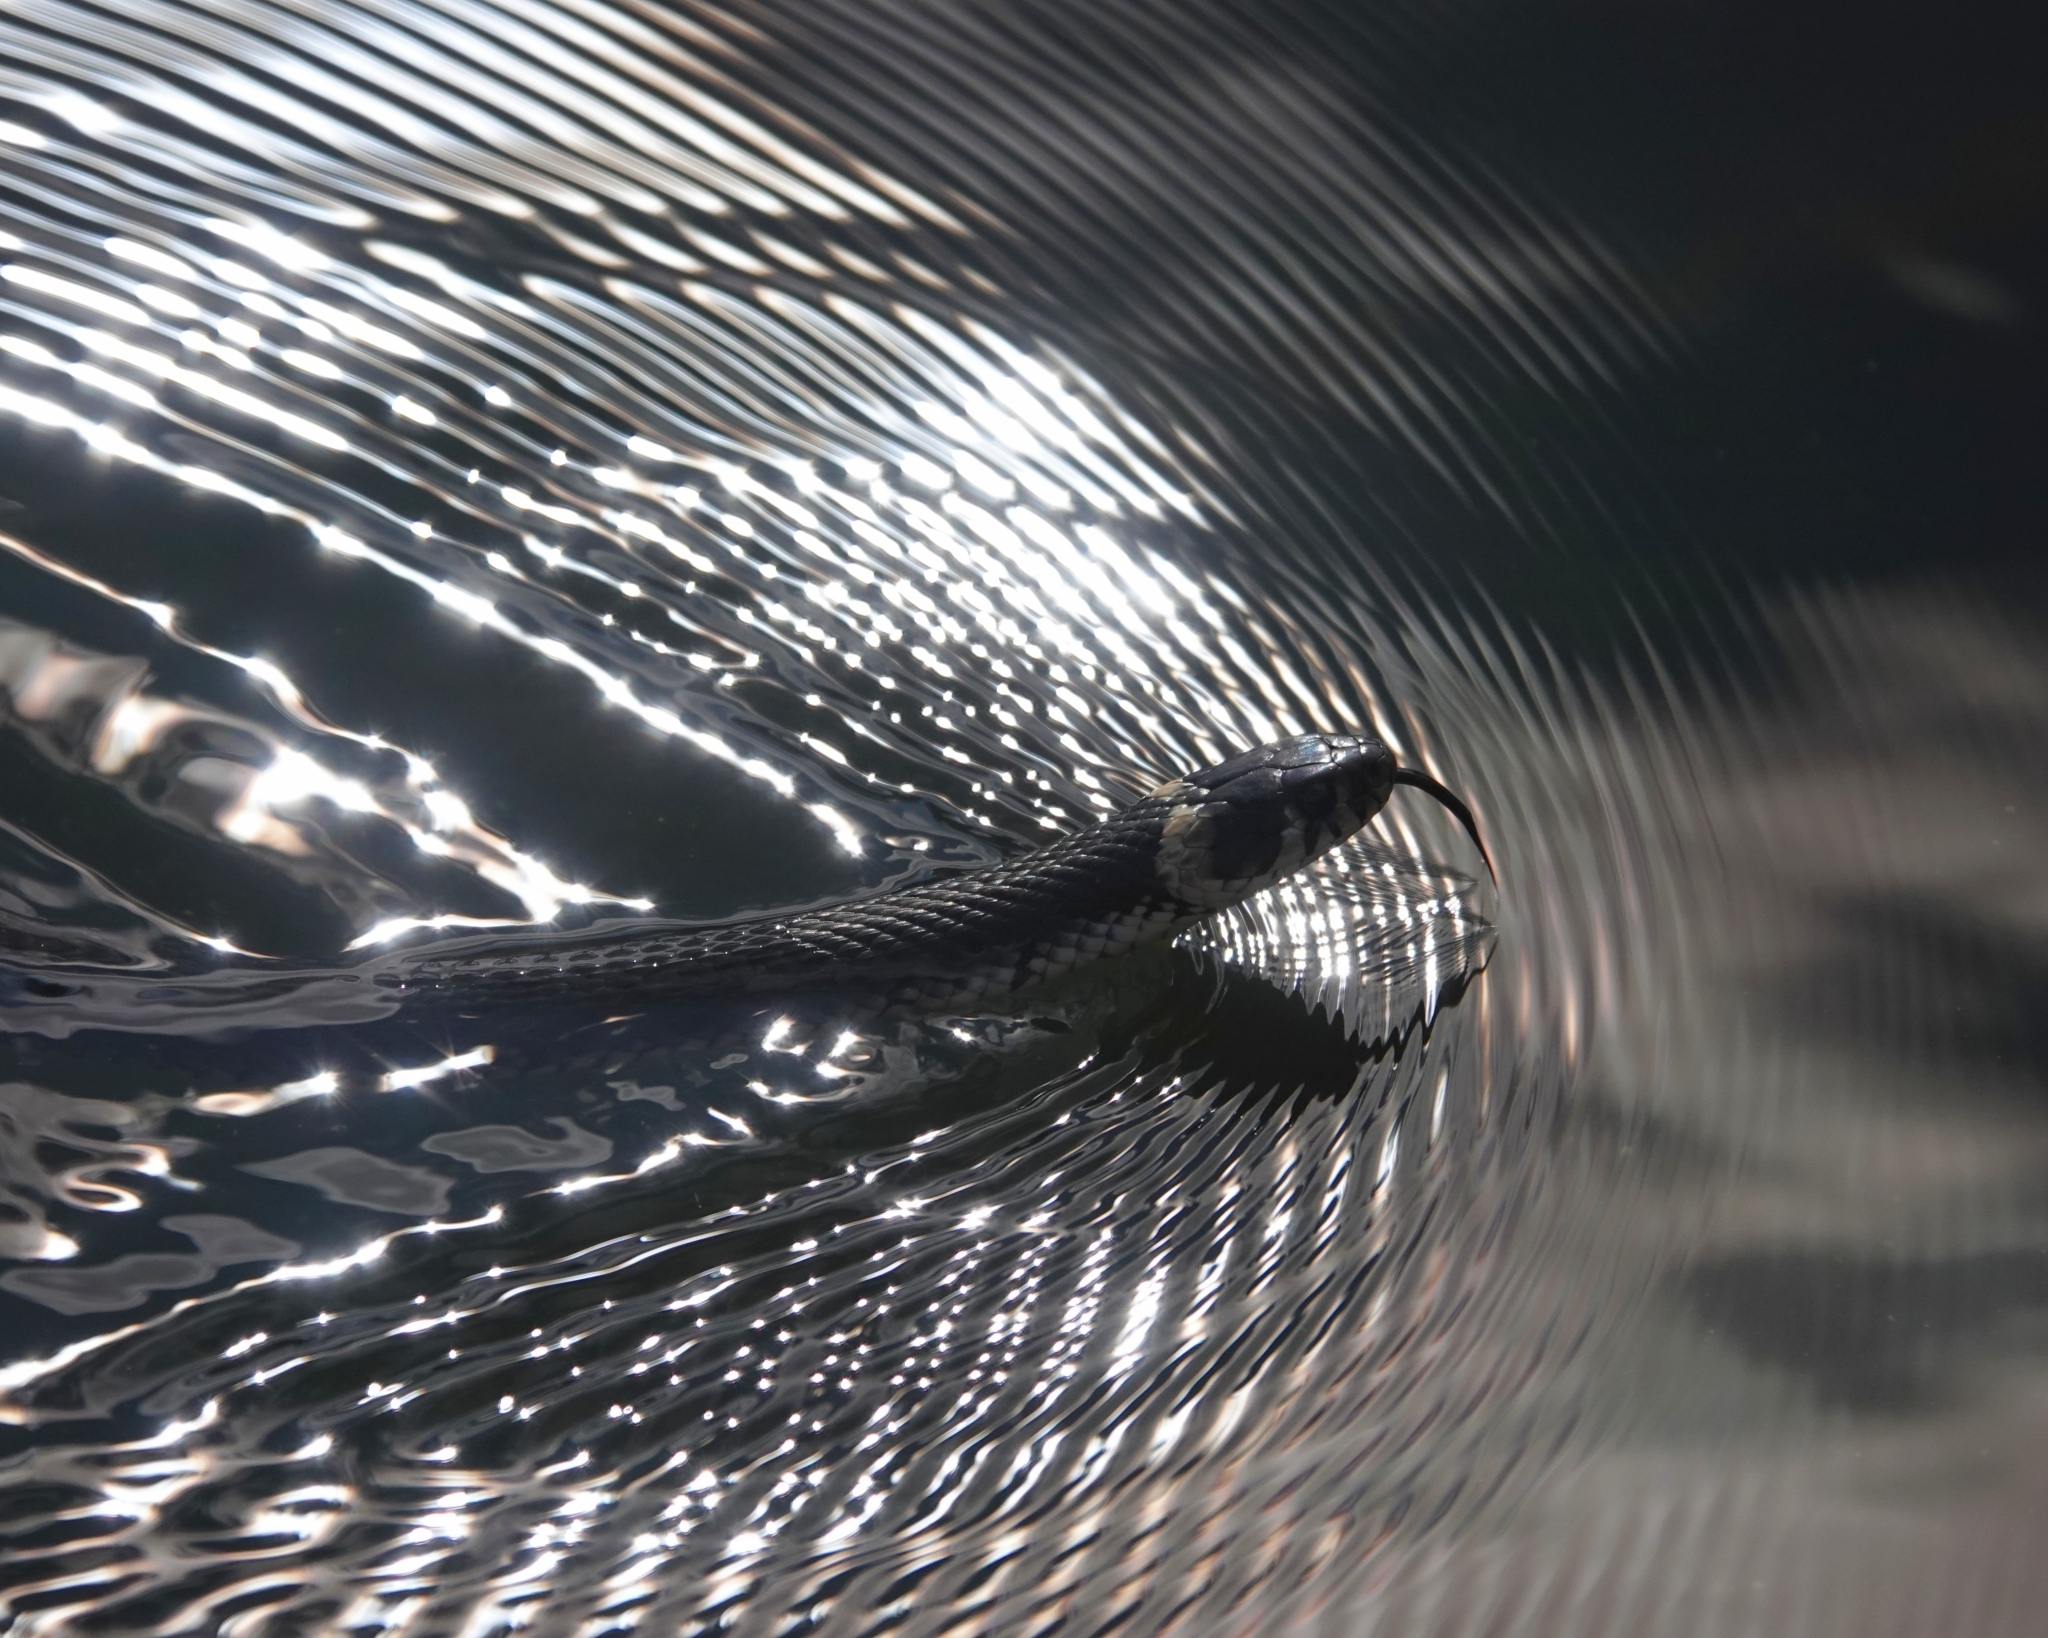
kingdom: Animalia
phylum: Chordata
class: Squamata
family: Colubridae
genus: Natrix
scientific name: Natrix natrix
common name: Grass snake
